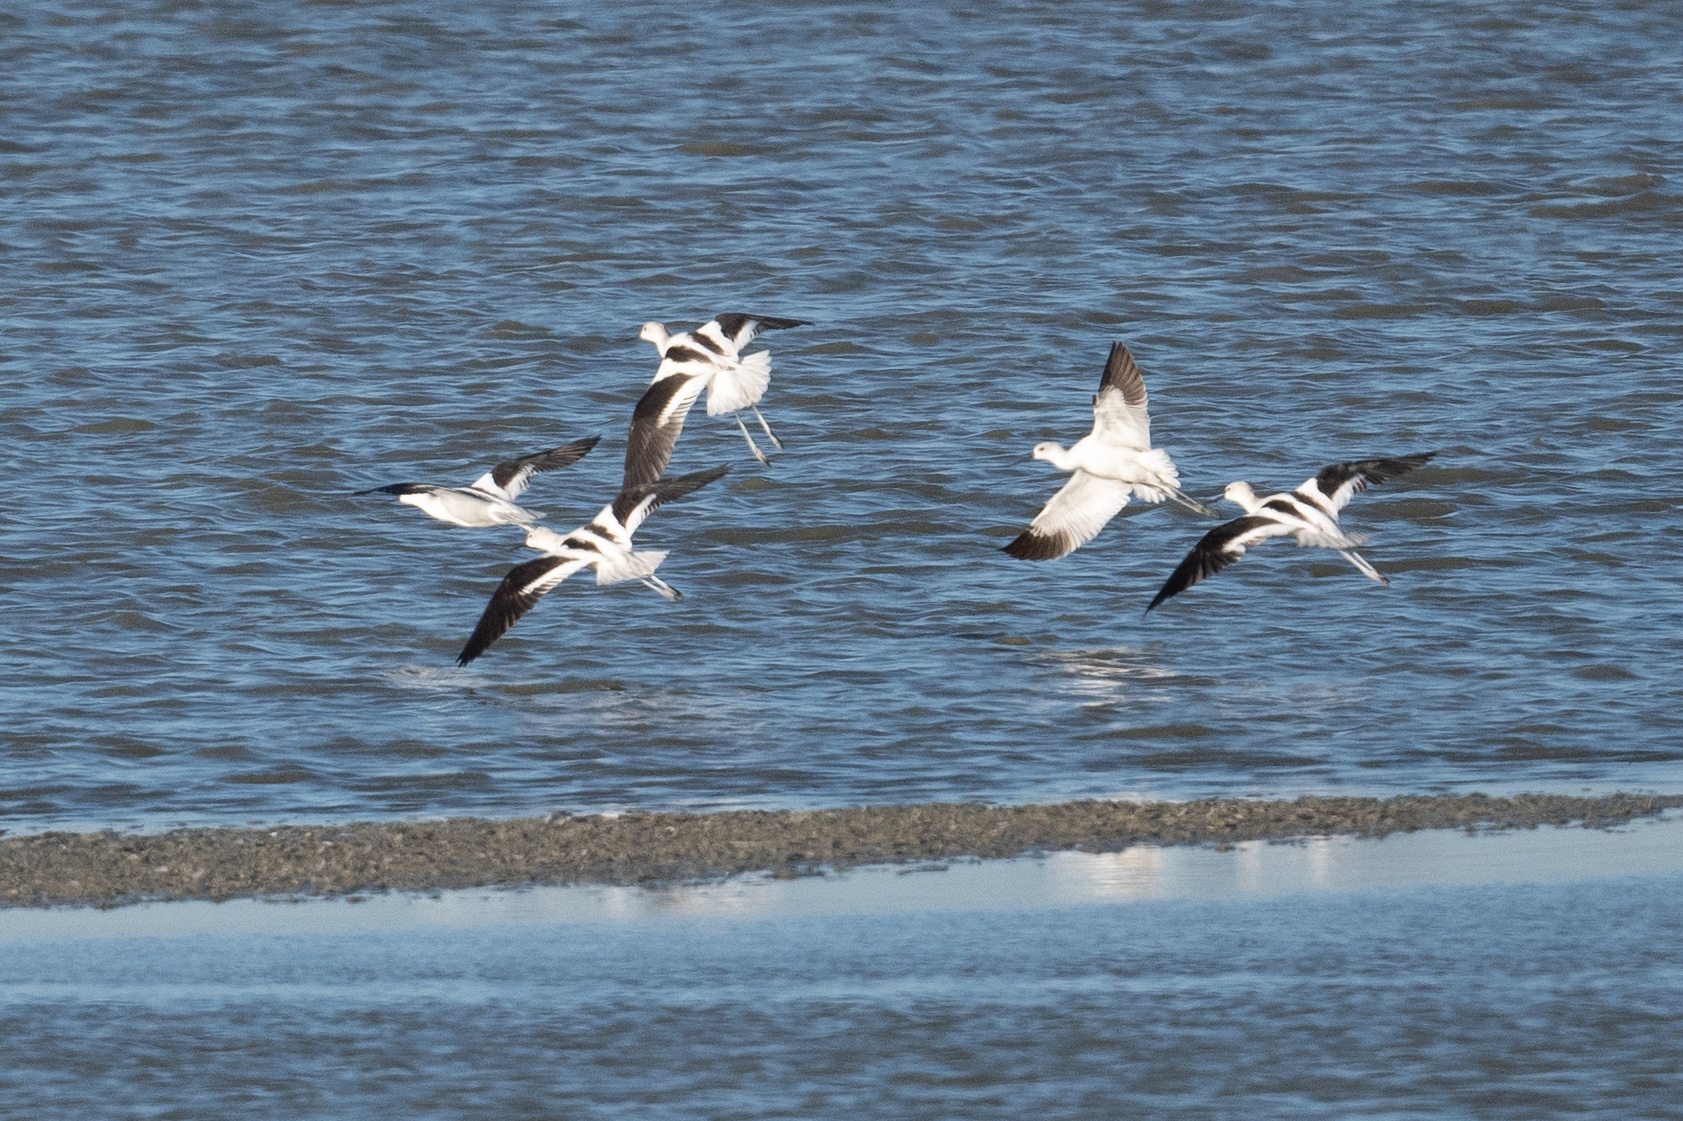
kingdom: Animalia
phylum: Chordata
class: Aves
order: Charadriiformes
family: Recurvirostridae
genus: Recurvirostra
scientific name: Recurvirostra americana
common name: American avocet
